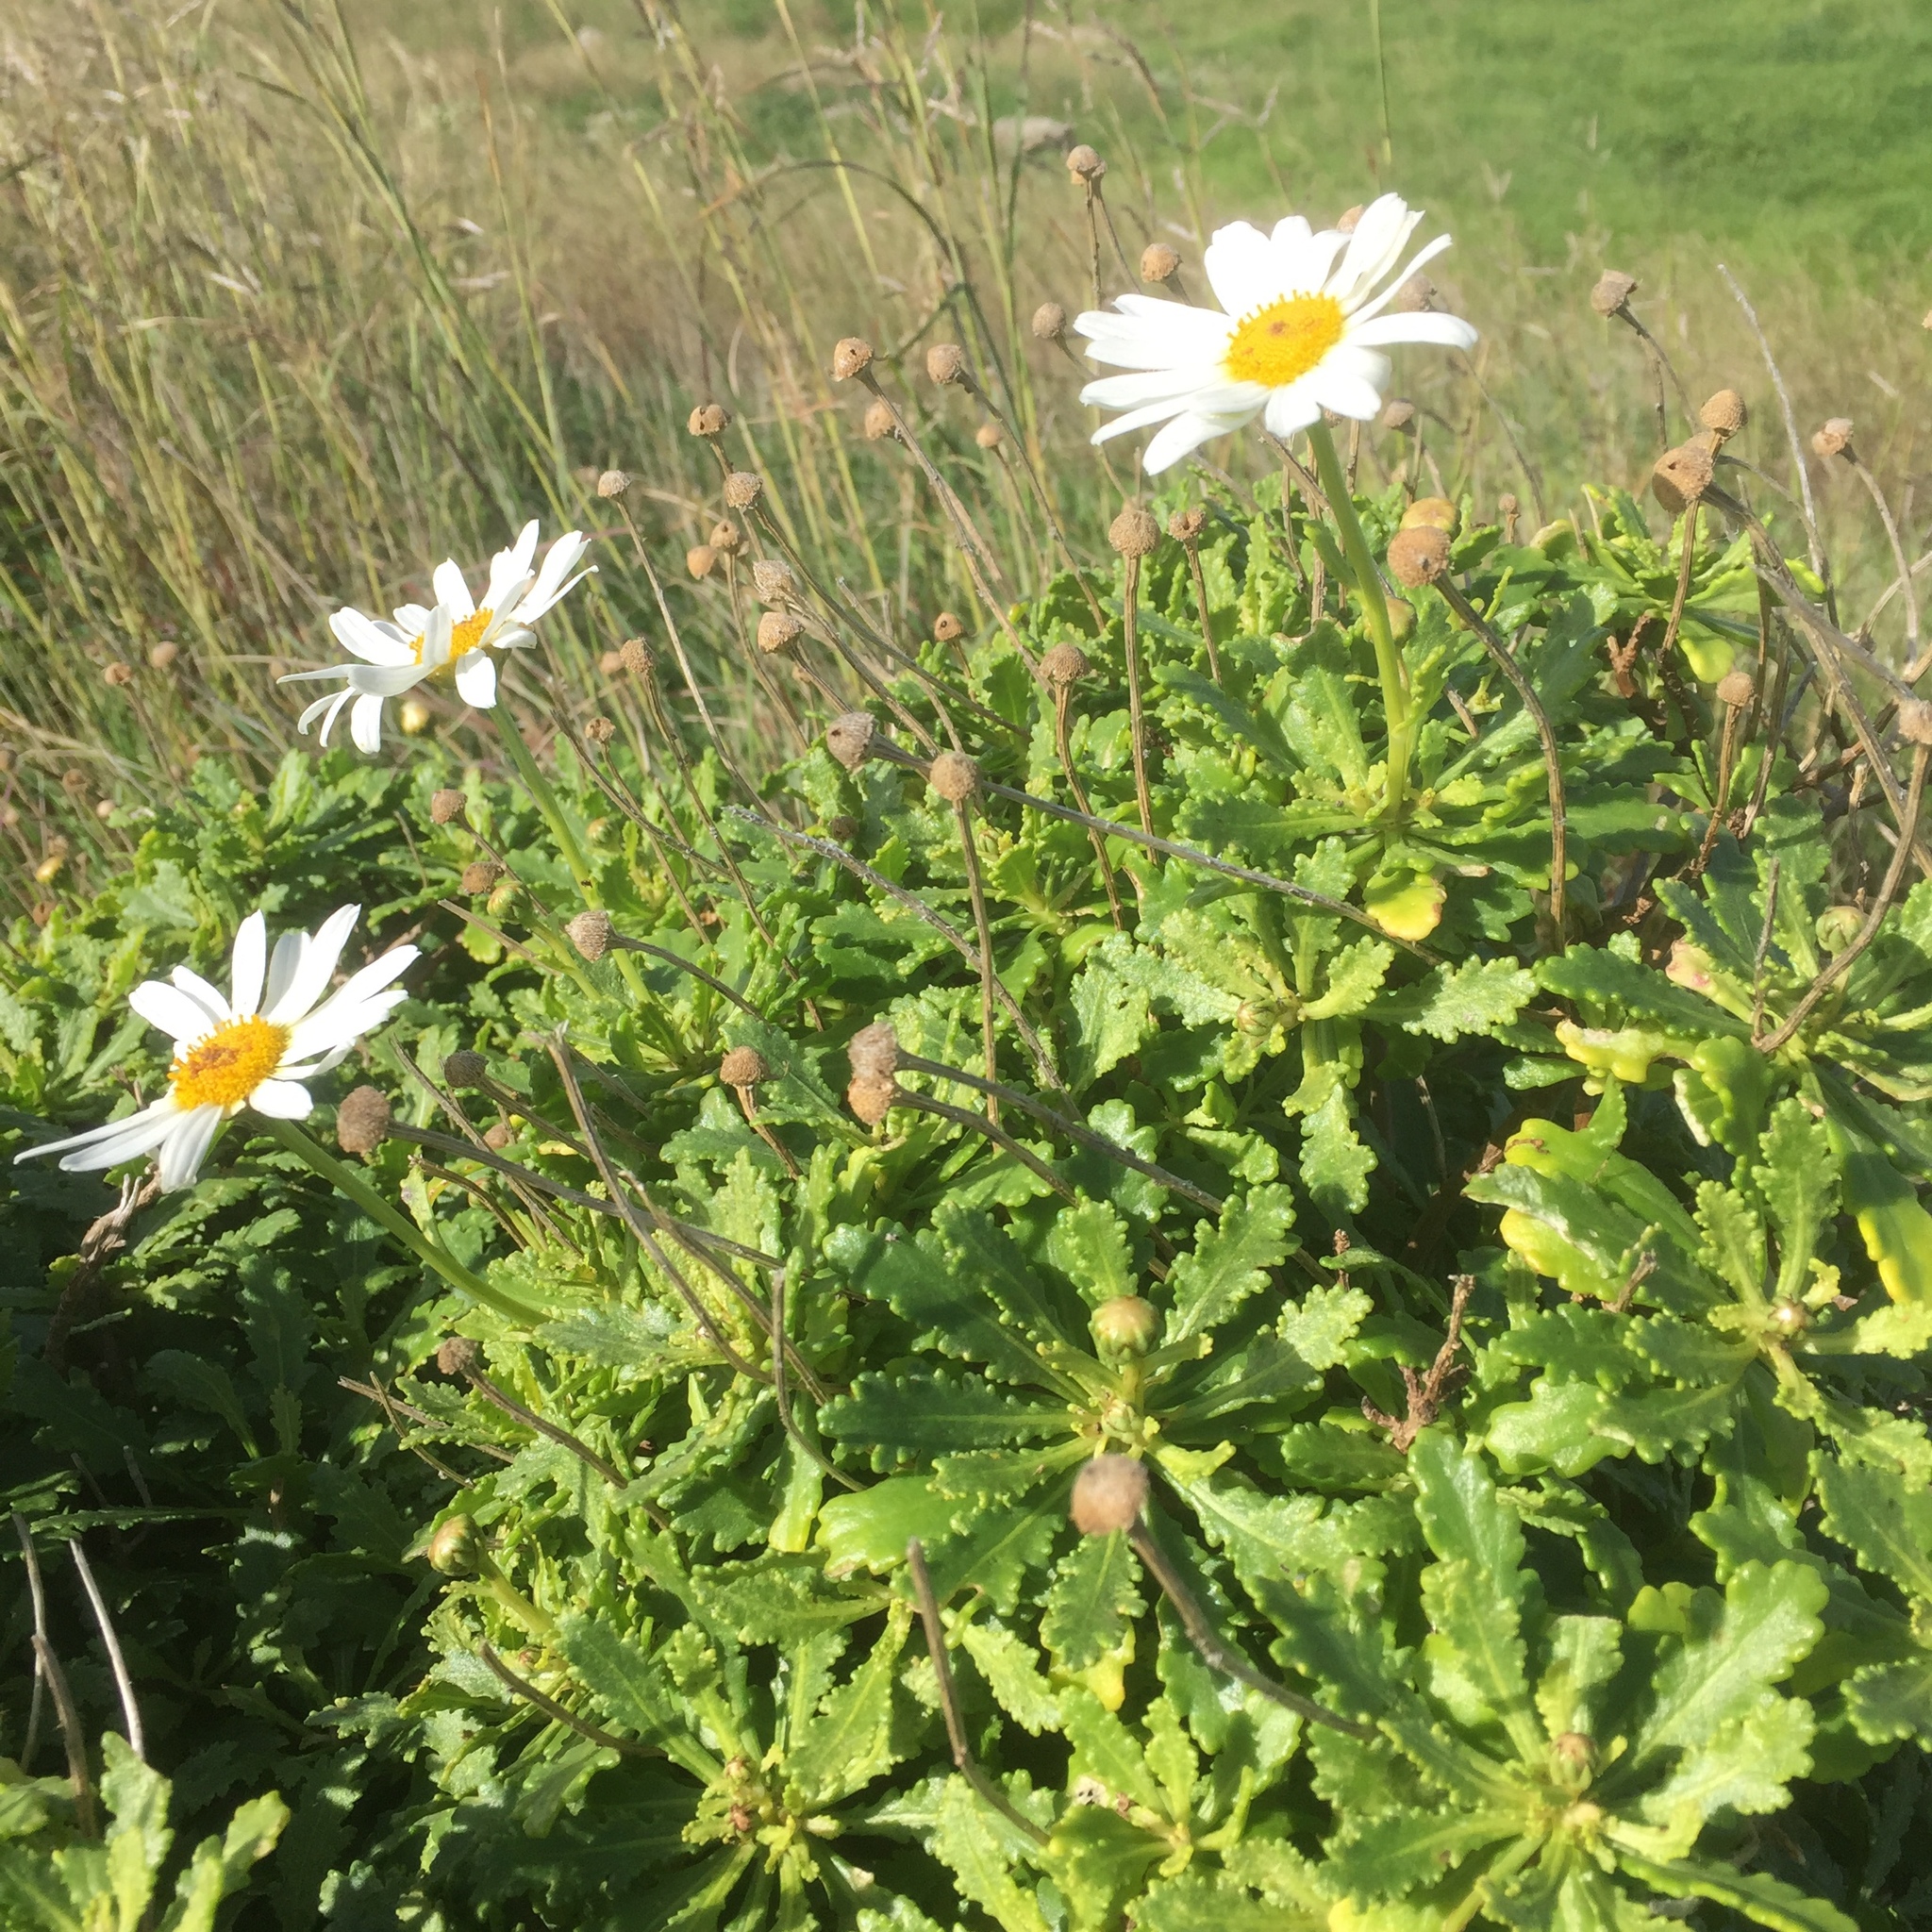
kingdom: Plantae
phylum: Tracheophyta
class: Magnoliopsida
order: Asterales
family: Asteraceae
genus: Argyranthemum
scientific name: Argyranthemum pinnatifidum
